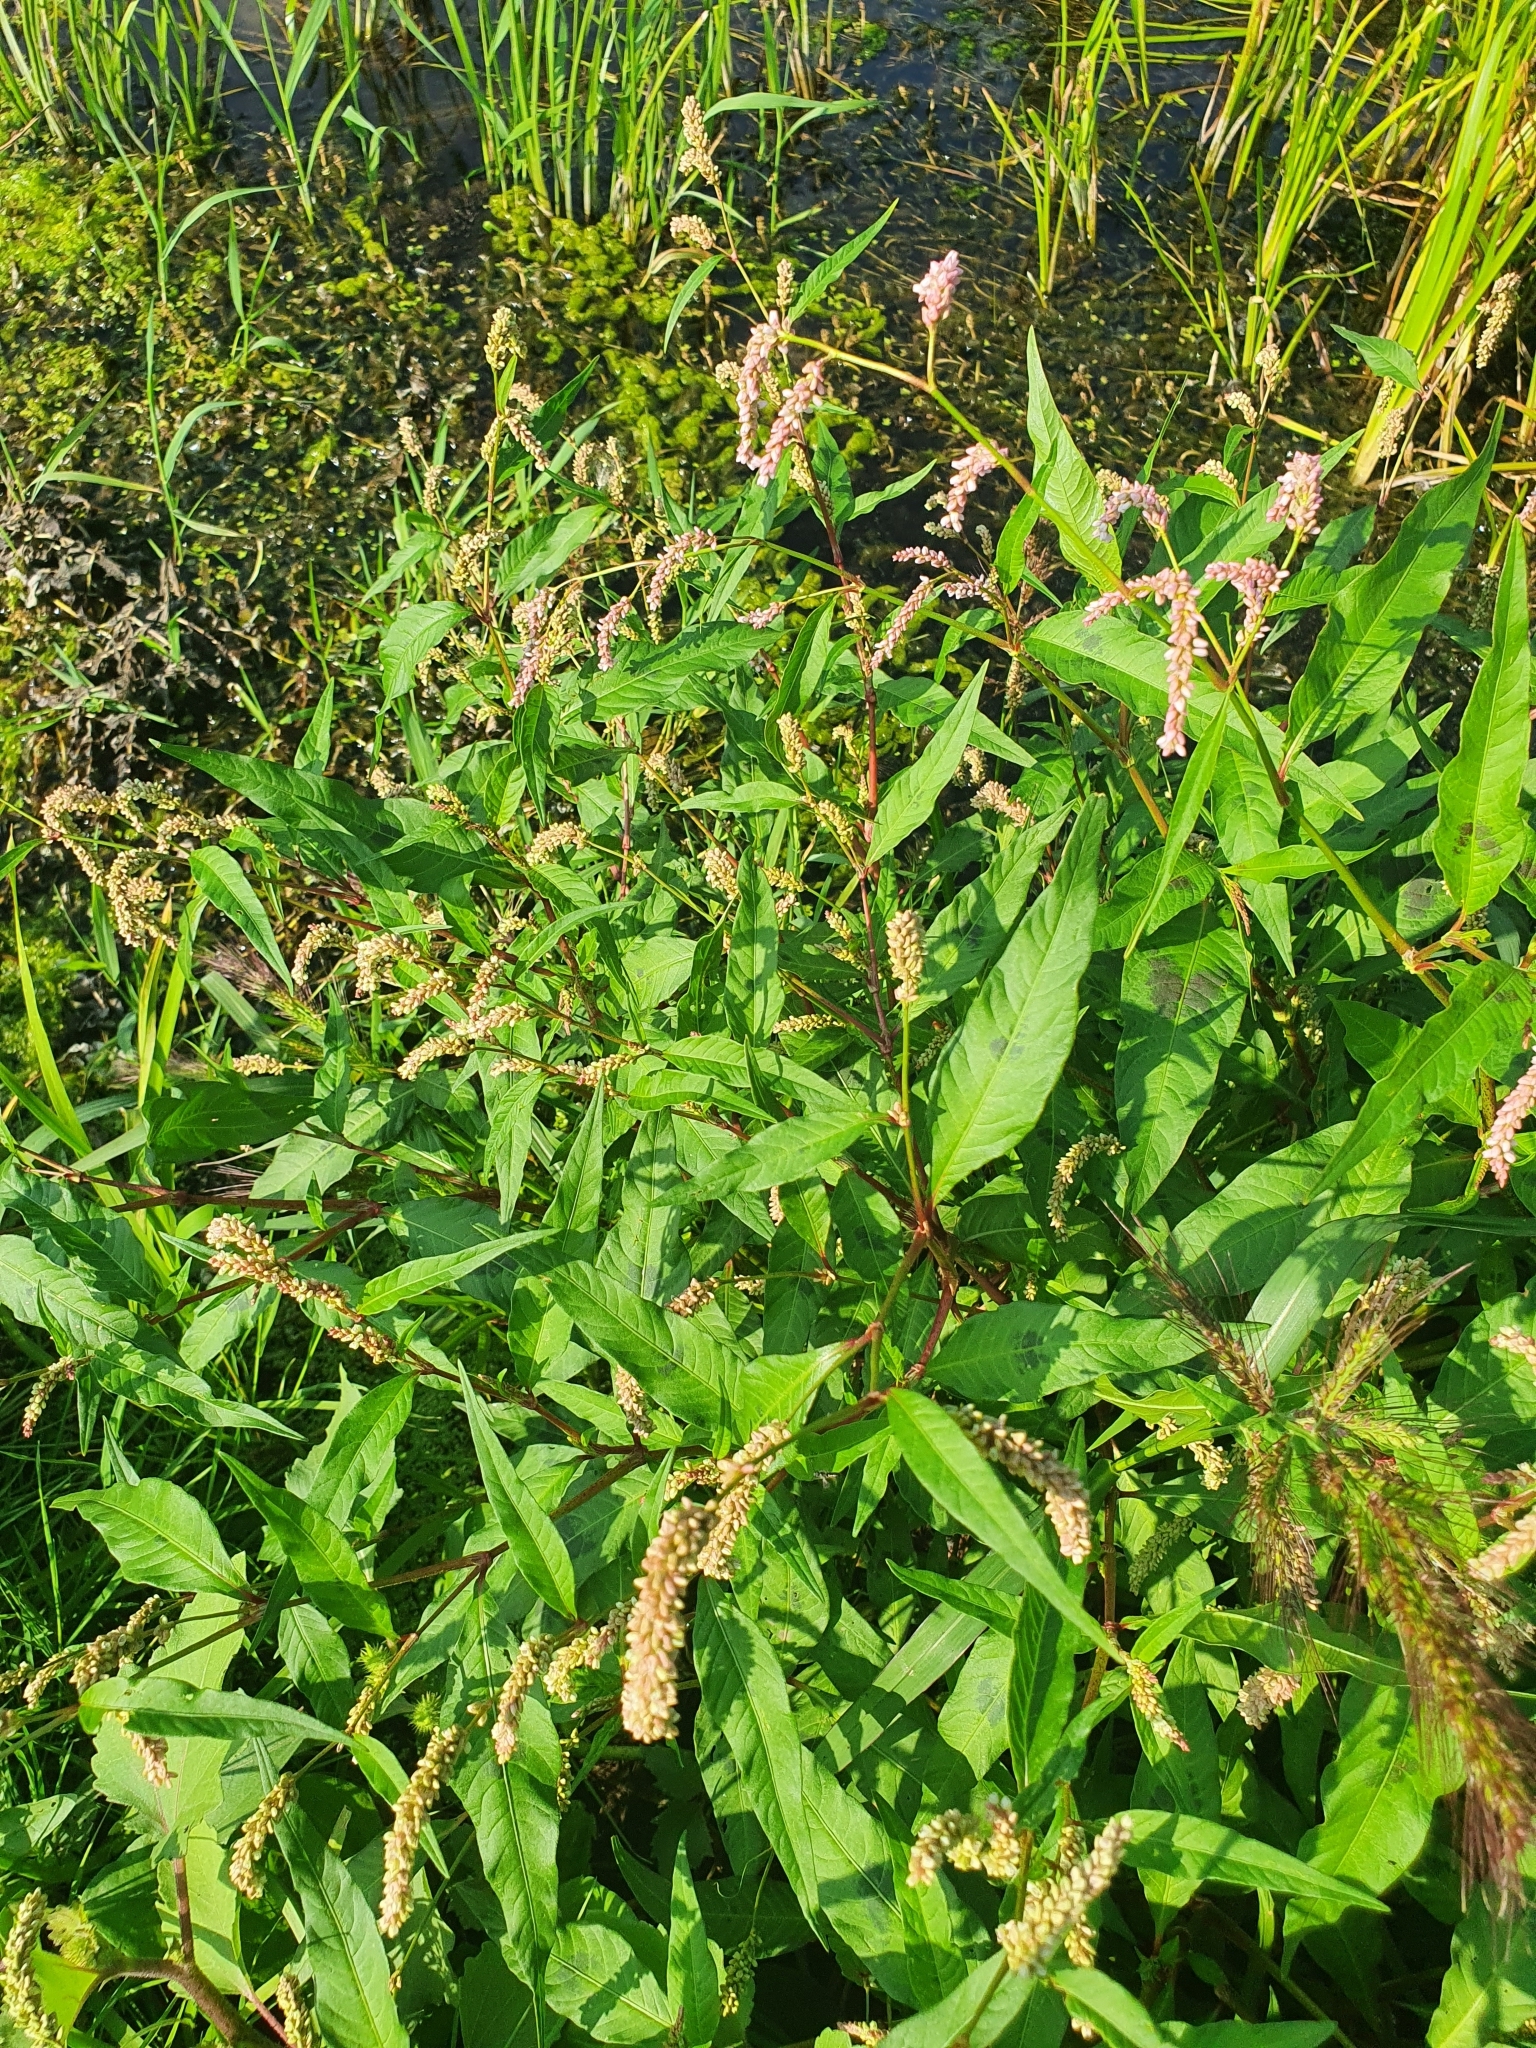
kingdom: Plantae
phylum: Tracheophyta
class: Magnoliopsida
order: Caryophyllales
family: Polygonaceae
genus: Persicaria
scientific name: Persicaria lapathifolia
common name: Curlytop knotweed
